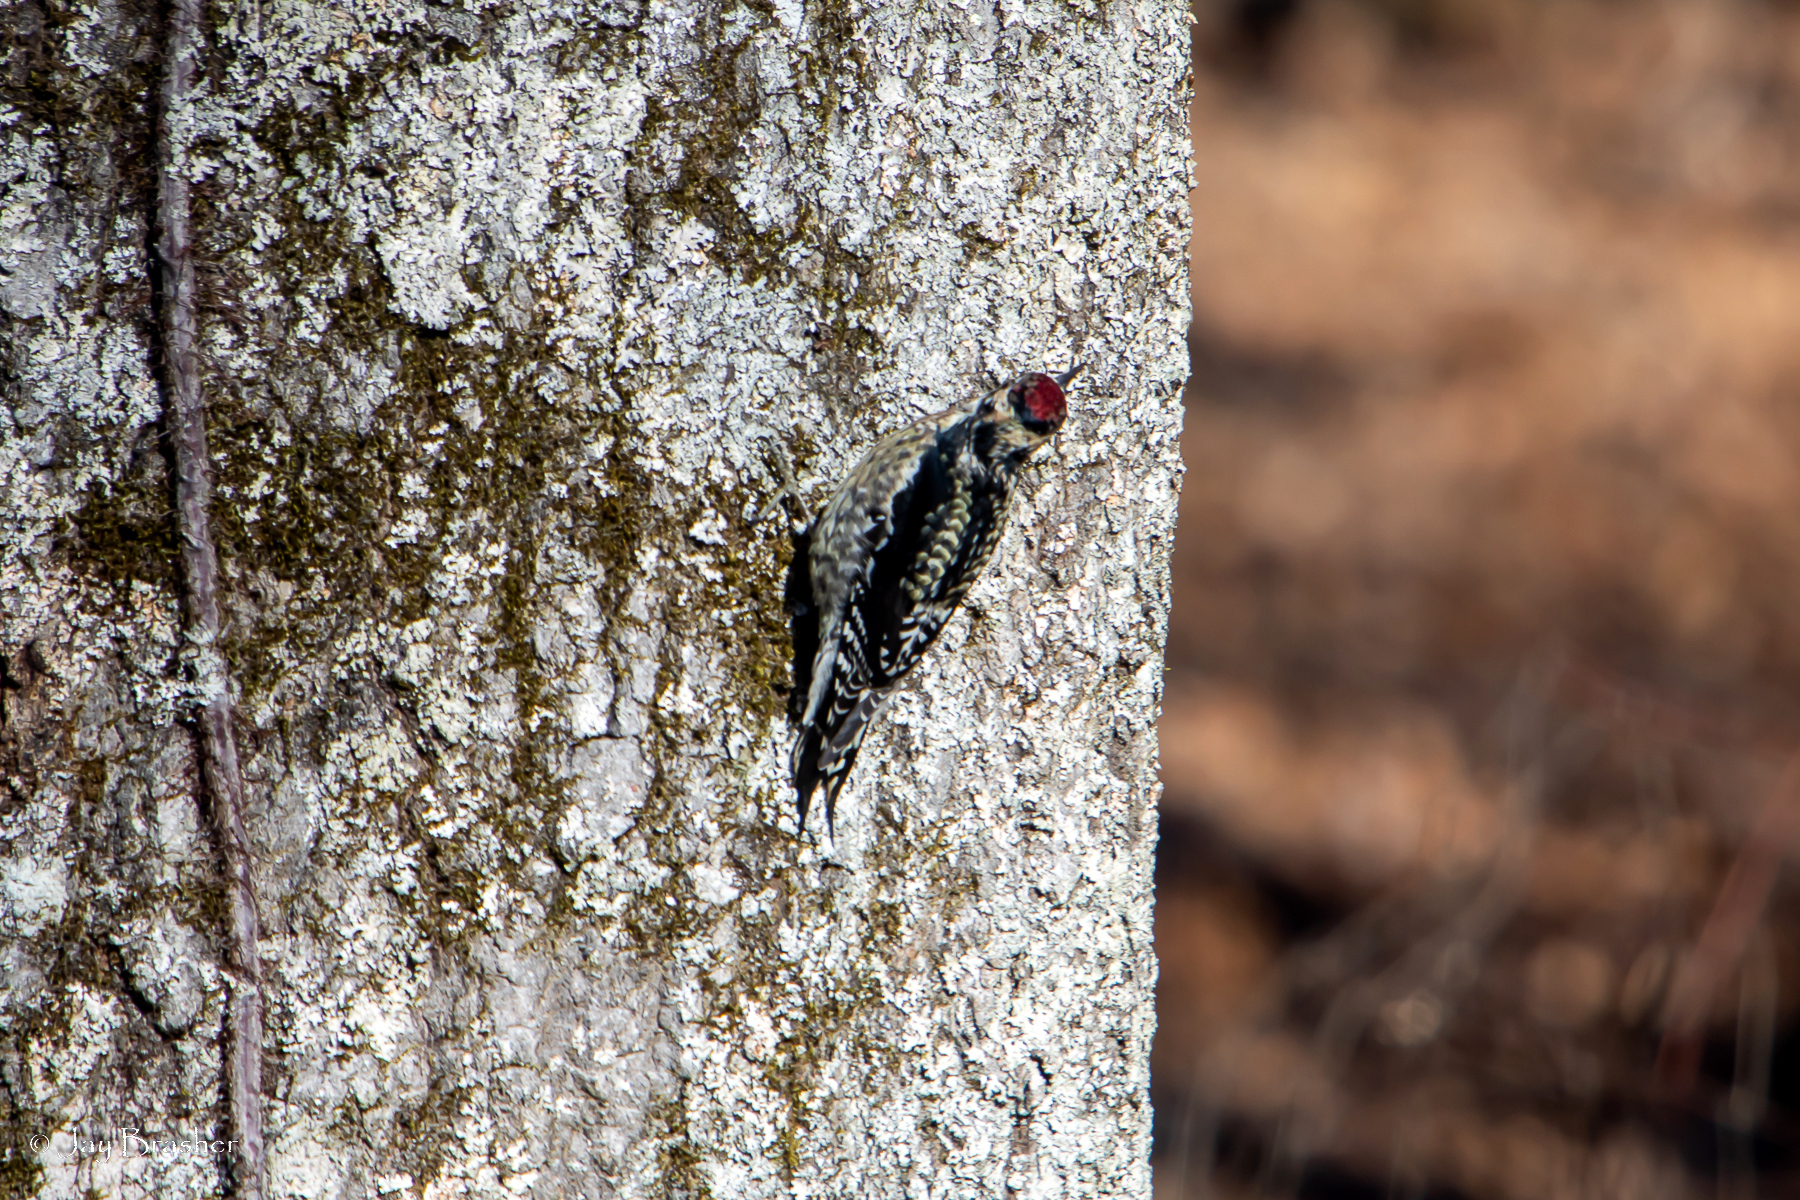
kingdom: Animalia
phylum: Chordata
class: Aves
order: Piciformes
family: Picidae
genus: Sphyrapicus
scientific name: Sphyrapicus varius
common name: Yellow-bellied sapsucker
